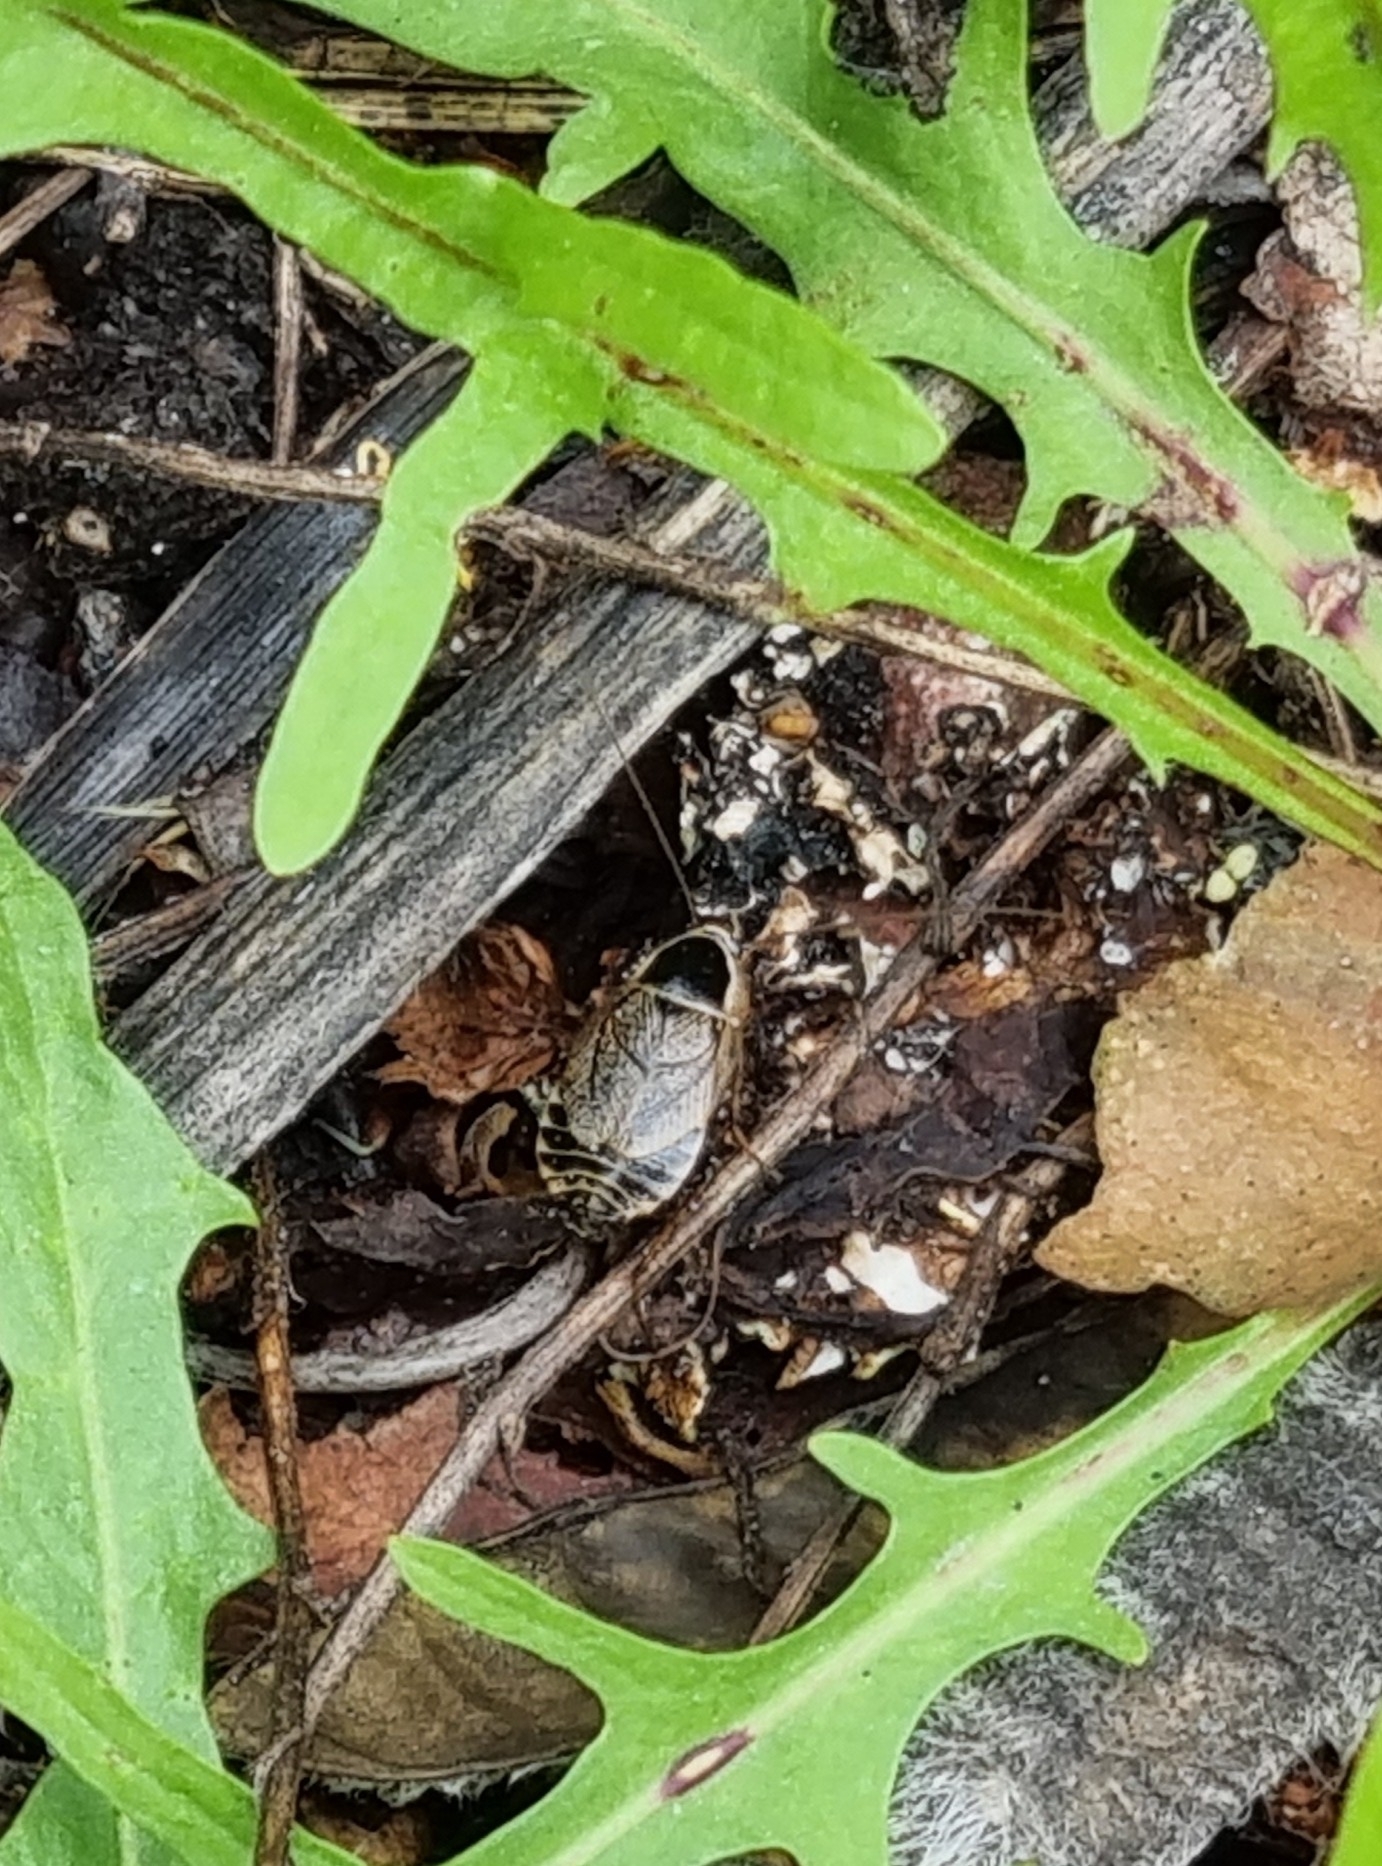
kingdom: Animalia
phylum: Arthropoda
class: Insecta
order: Blattodea
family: Ectobiidae
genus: Ectobius
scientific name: Ectobius sylvestris
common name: Forest cockroach
